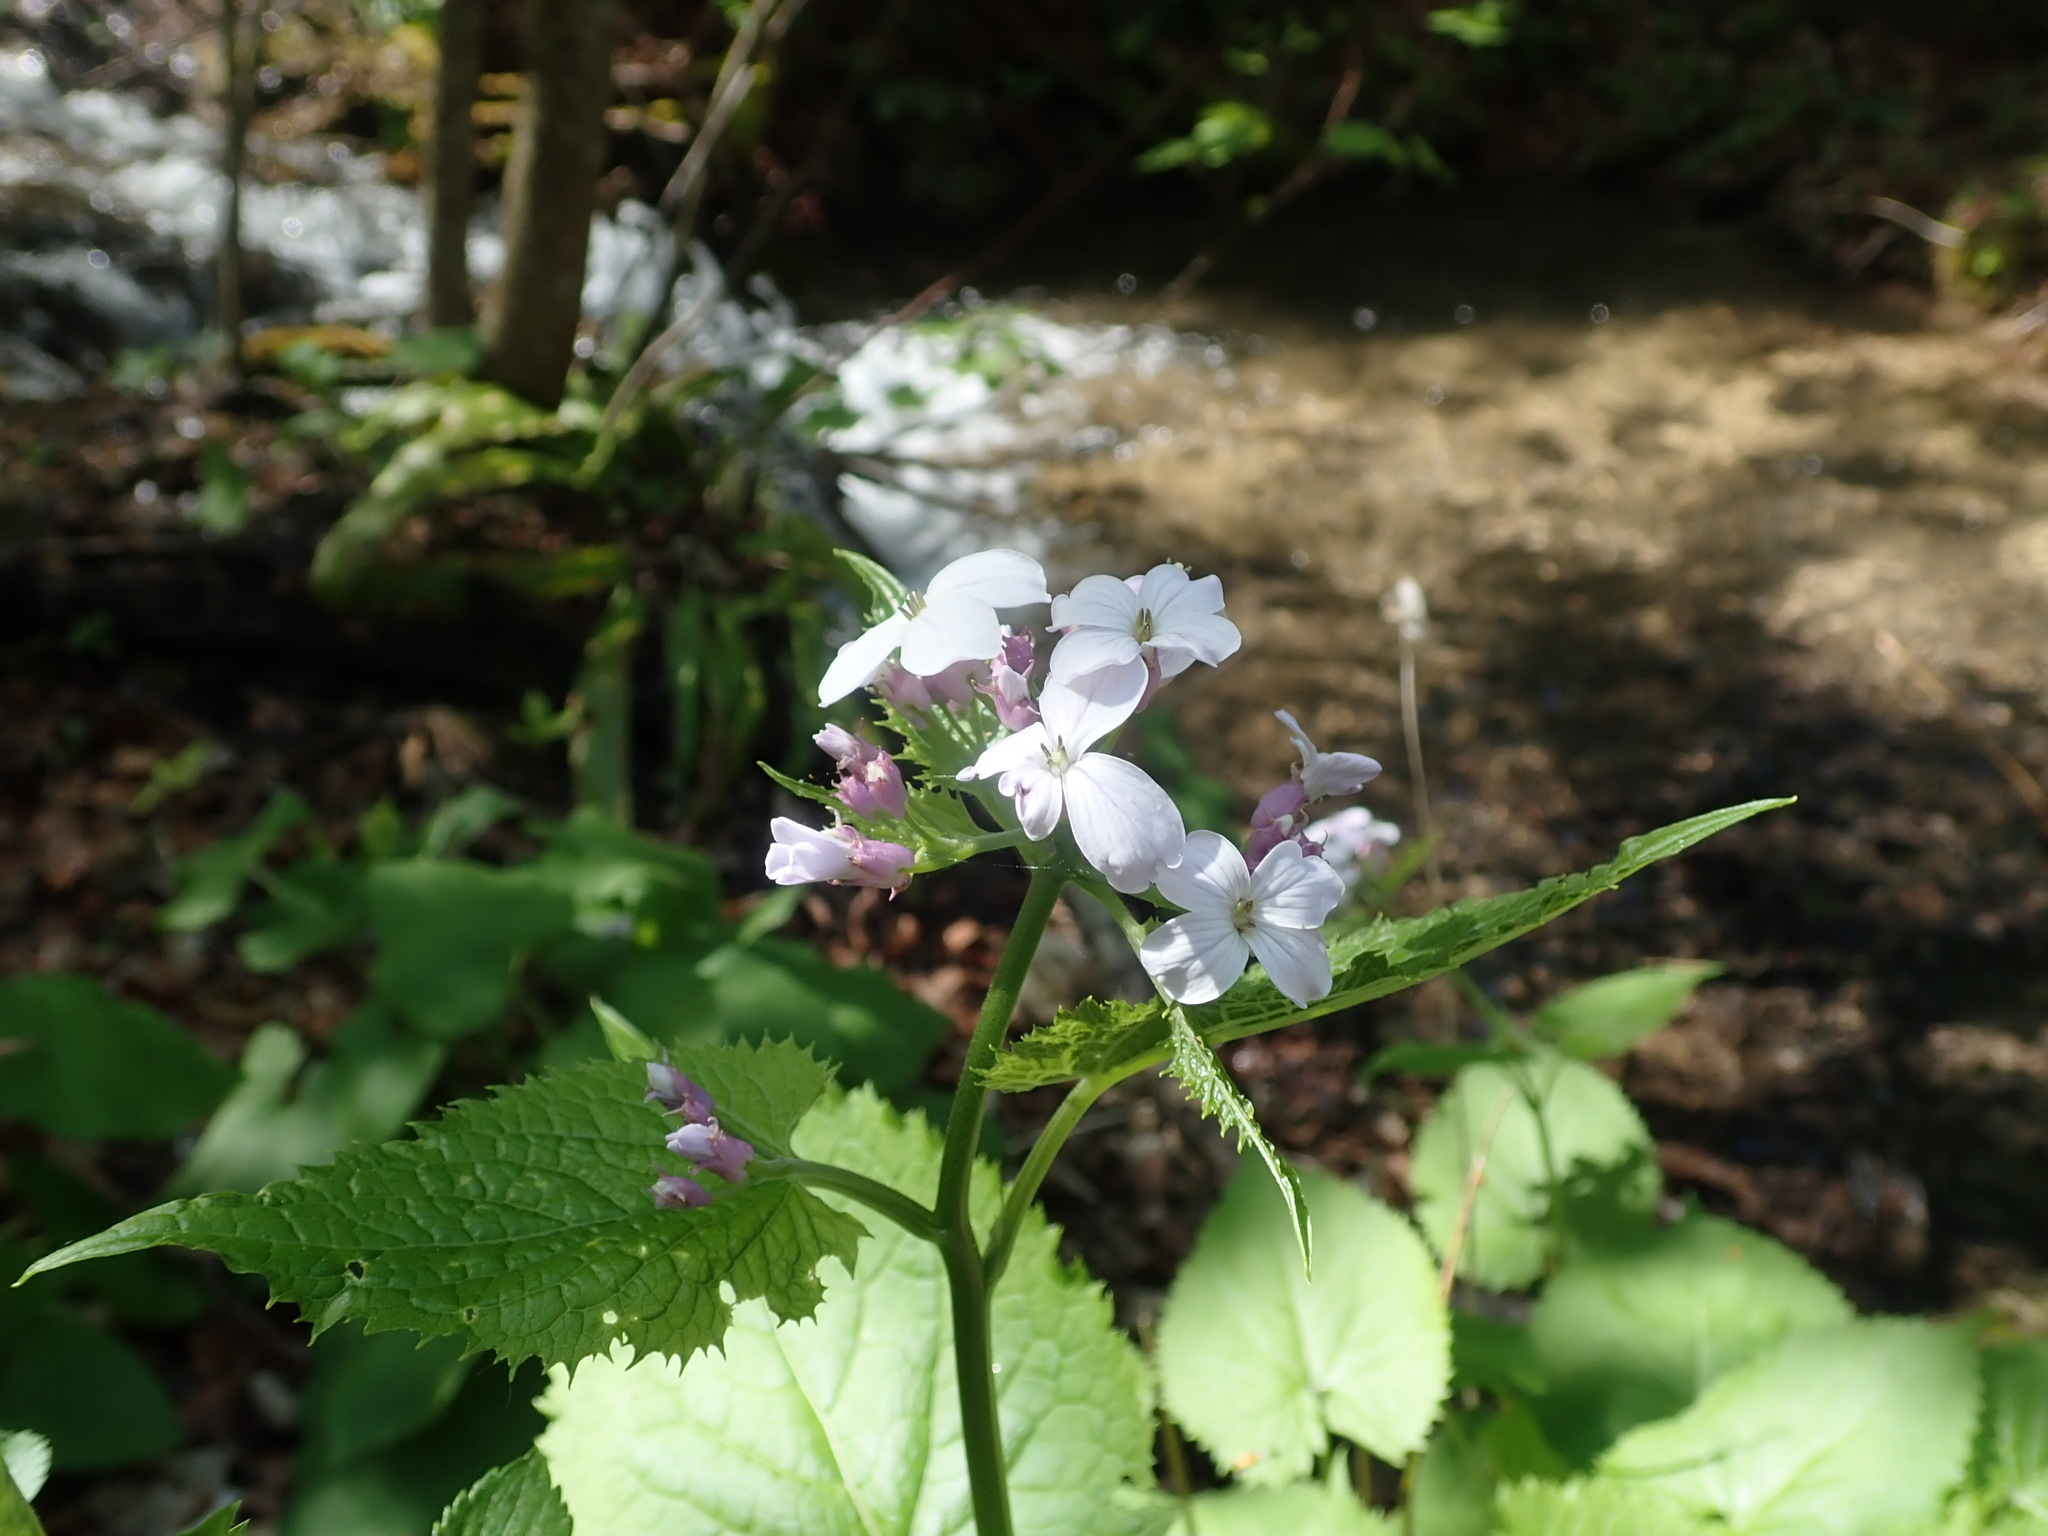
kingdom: Plantae
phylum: Tracheophyta
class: Magnoliopsida
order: Brassicales
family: Brassicaceae
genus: Lunaria
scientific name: Lunaria rediviva
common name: Perennial honesty
